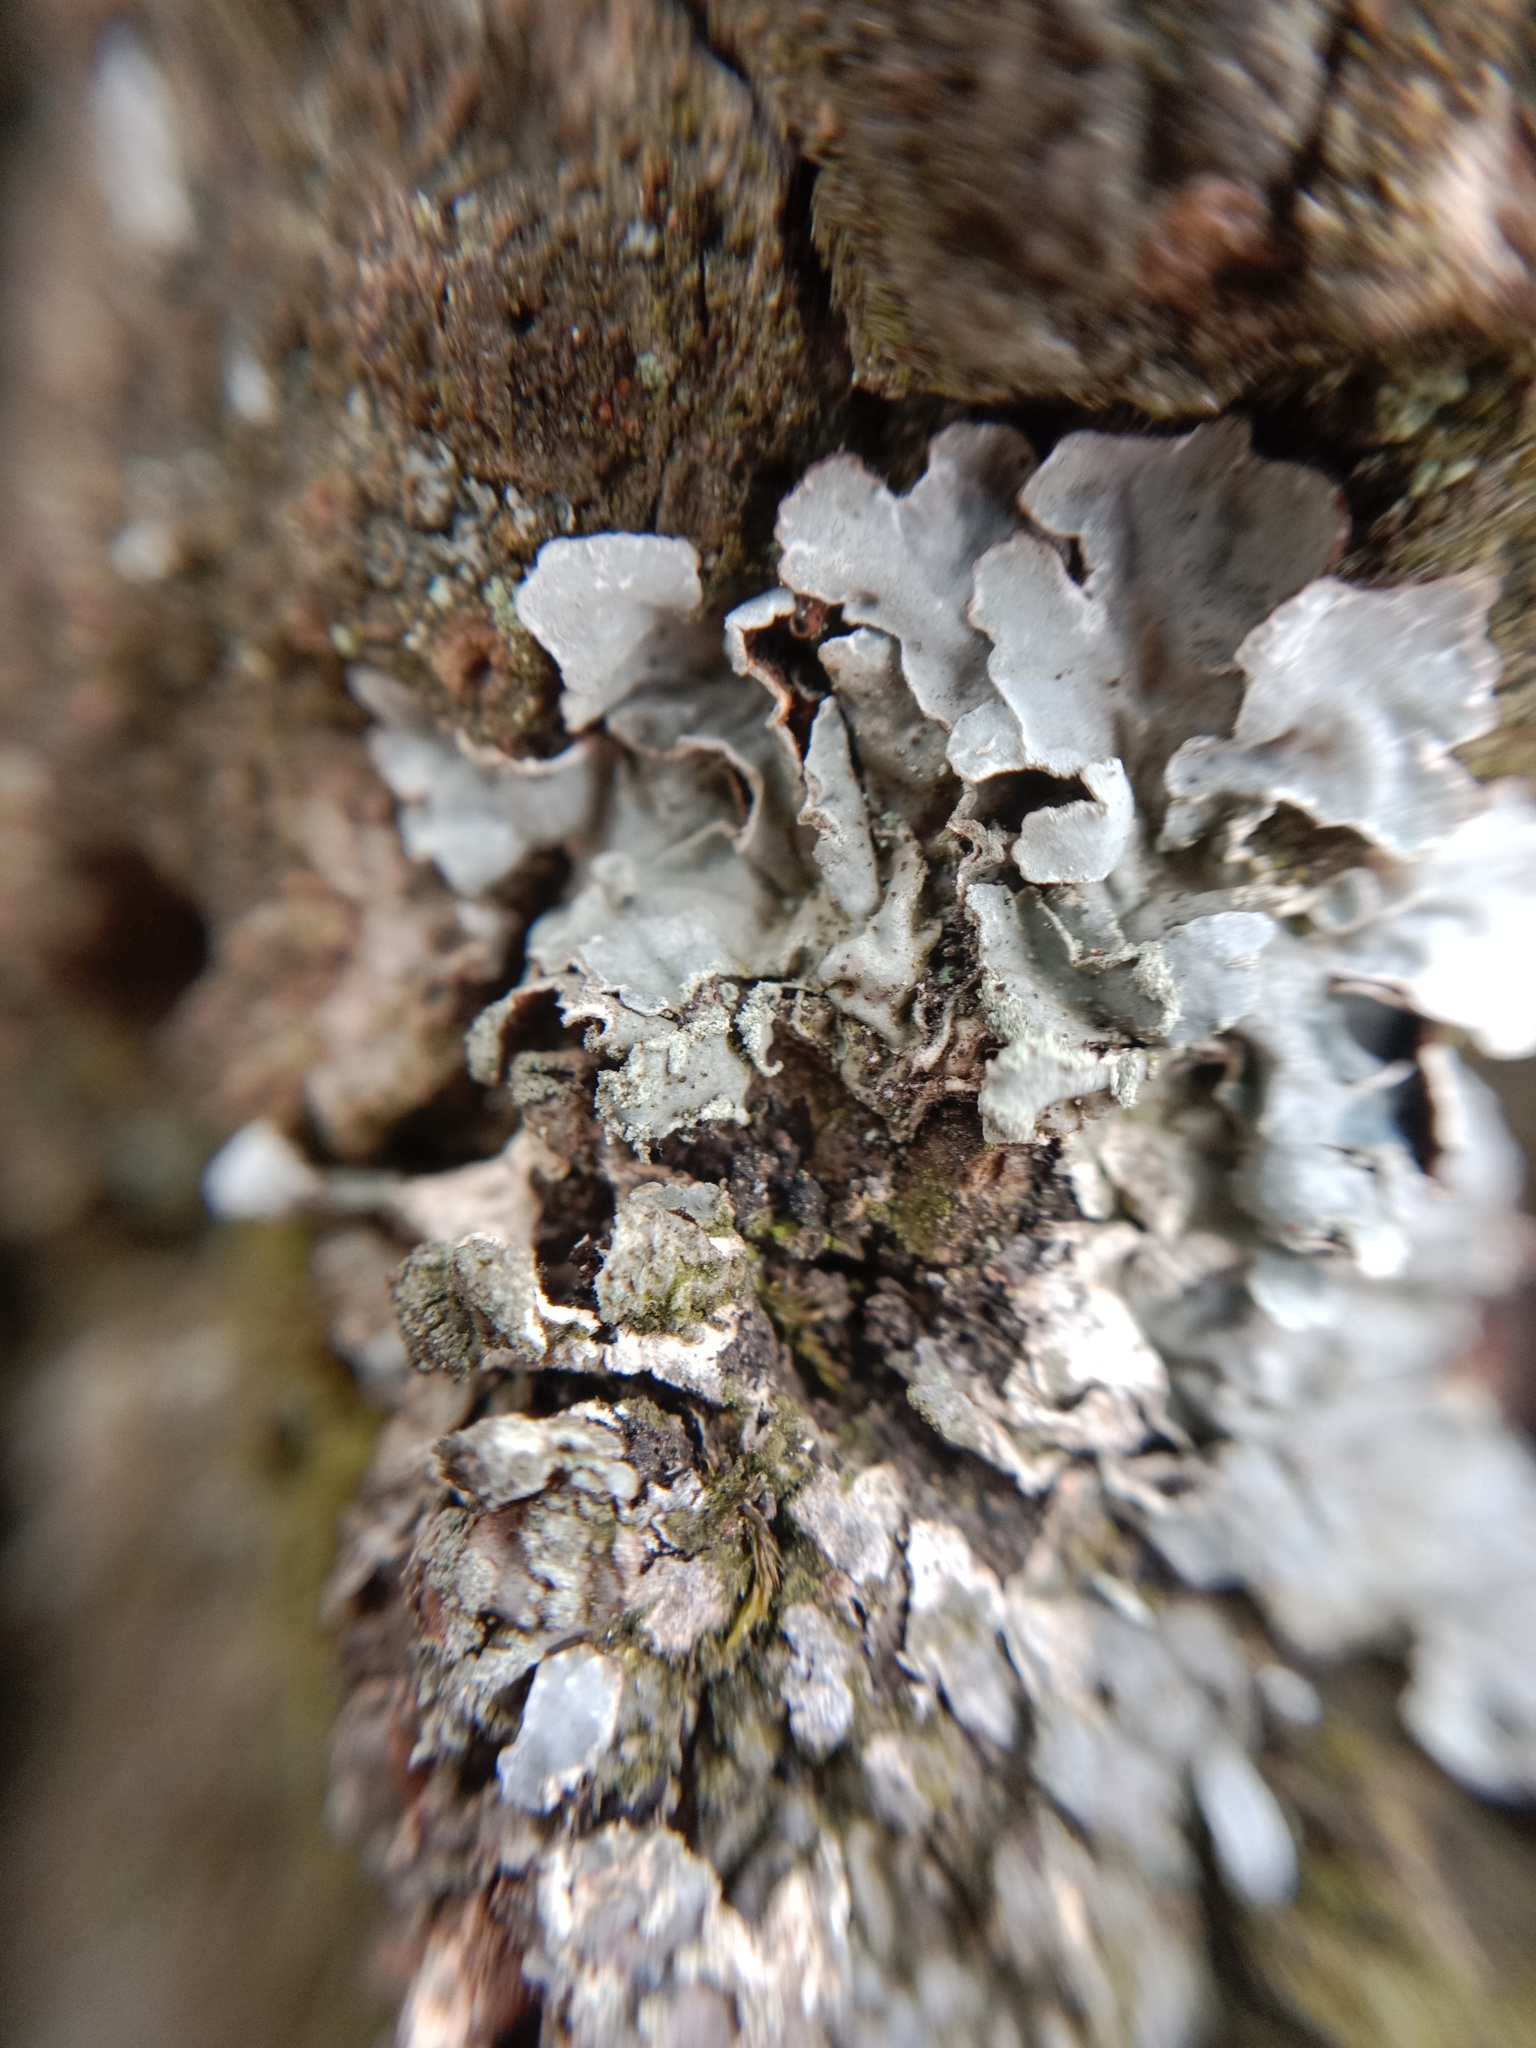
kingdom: Fungi
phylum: Ascomycota
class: Lecanoromycetes
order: Lecanorales
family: Parmeliaceae
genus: Parmelia
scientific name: Parmelia sulcata
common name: Netted shield lichen
